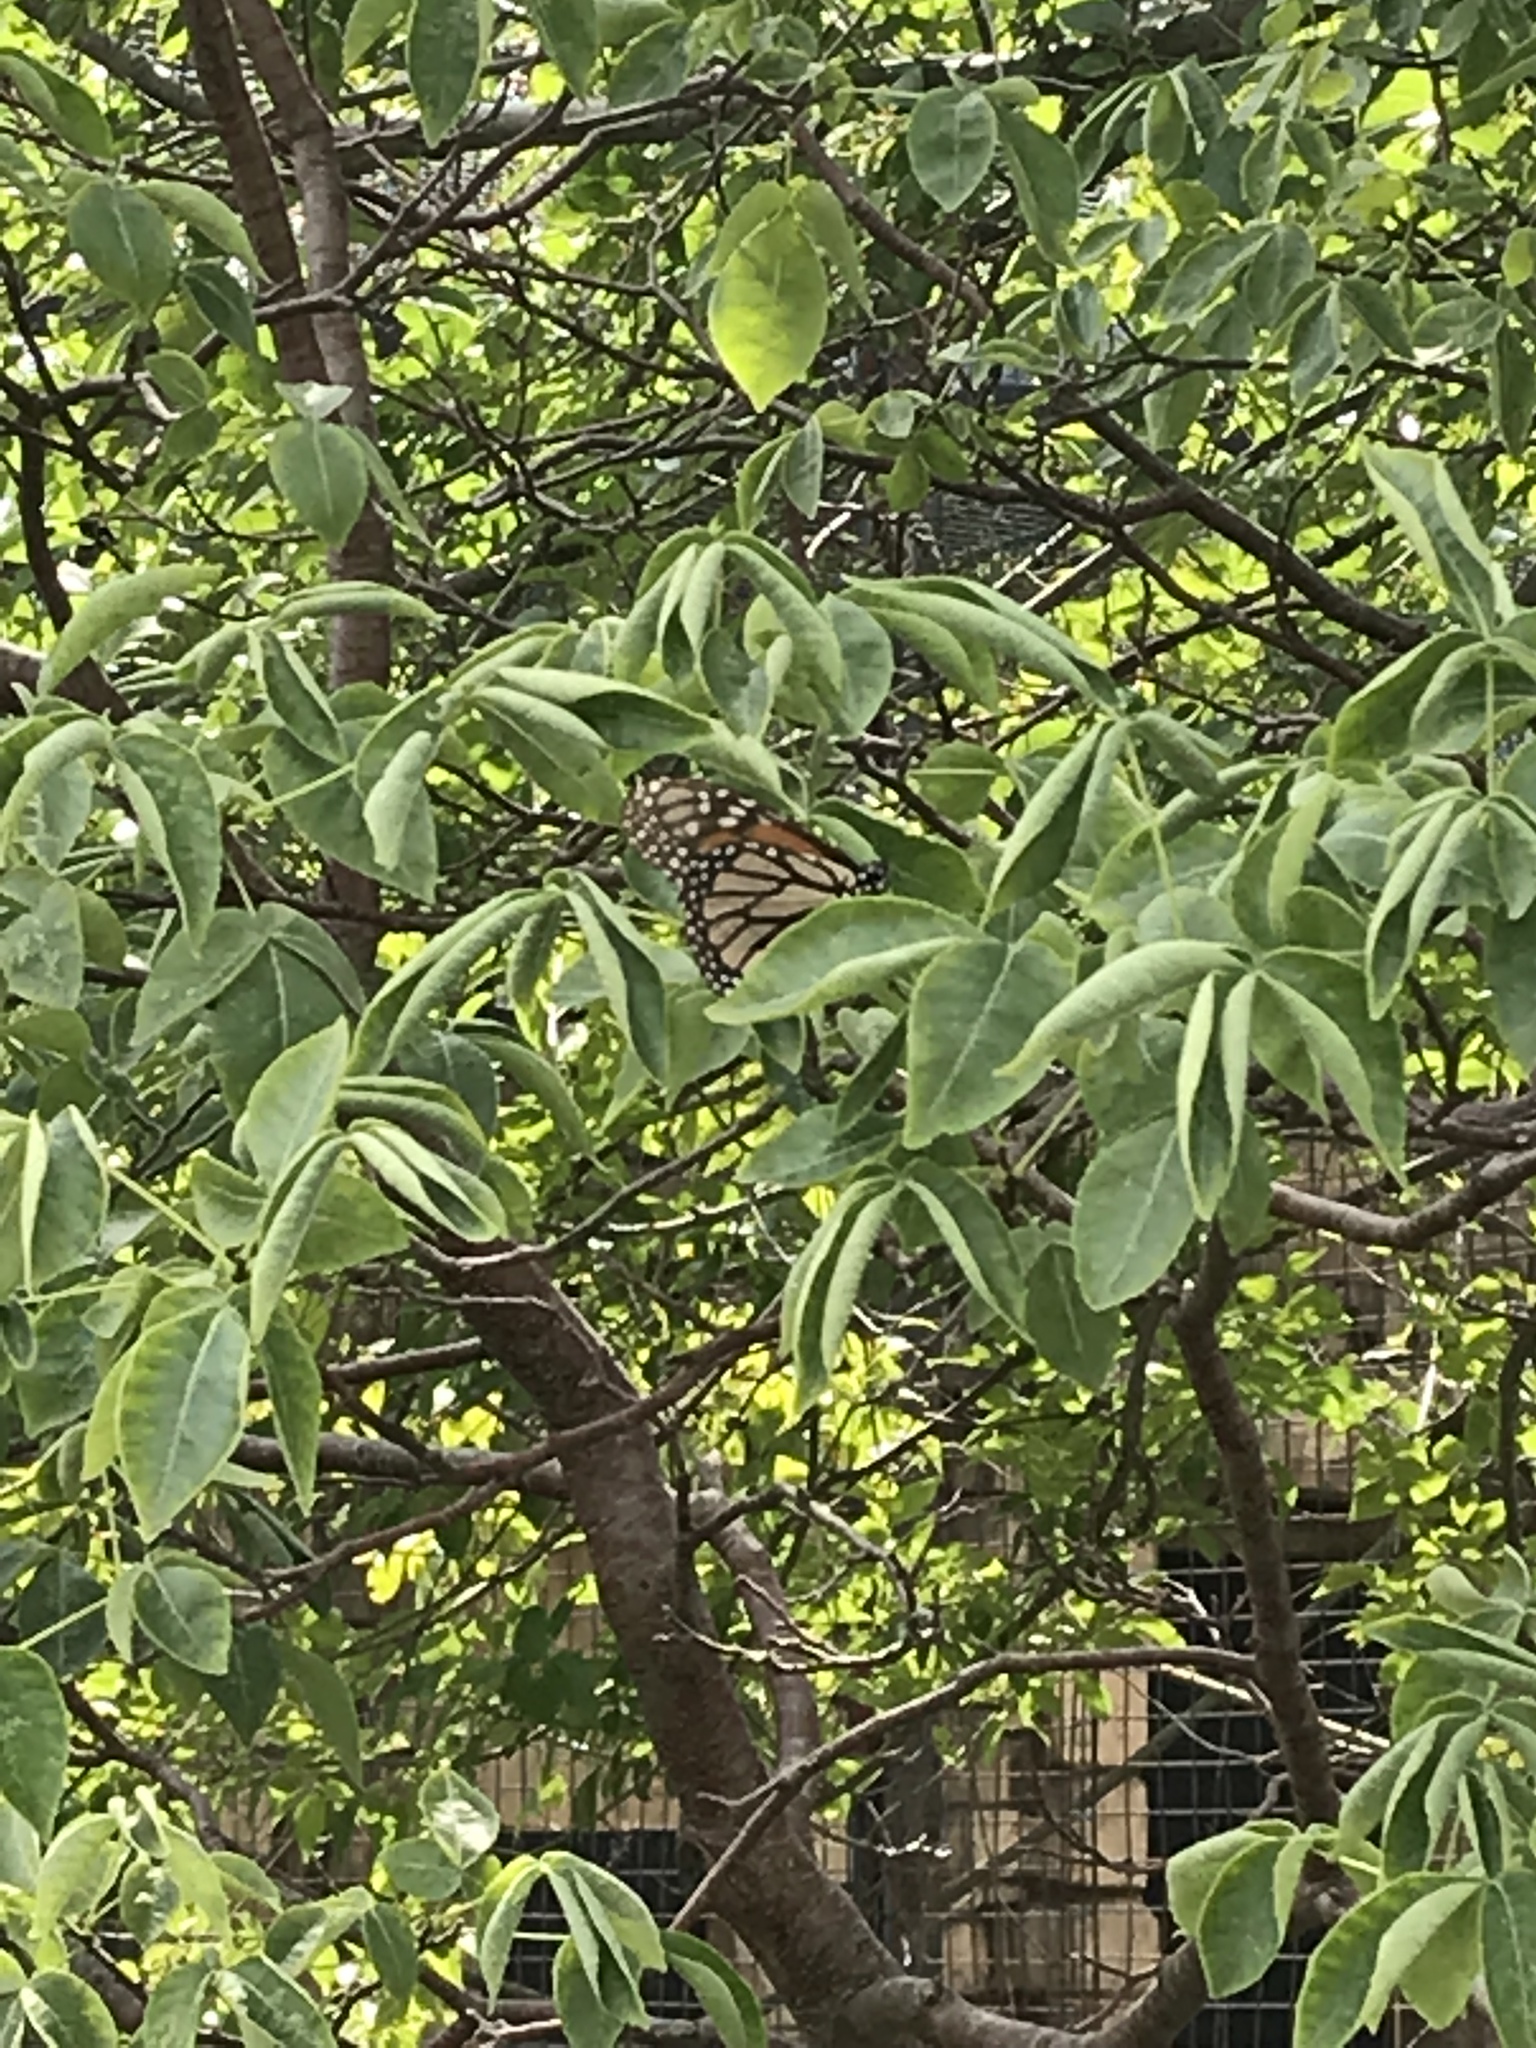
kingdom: Animalia
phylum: Arthropoda
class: Insecta
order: Lepidoptera
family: Nymphalidae
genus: Danaus
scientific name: Danaus plexippus
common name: Monarch
